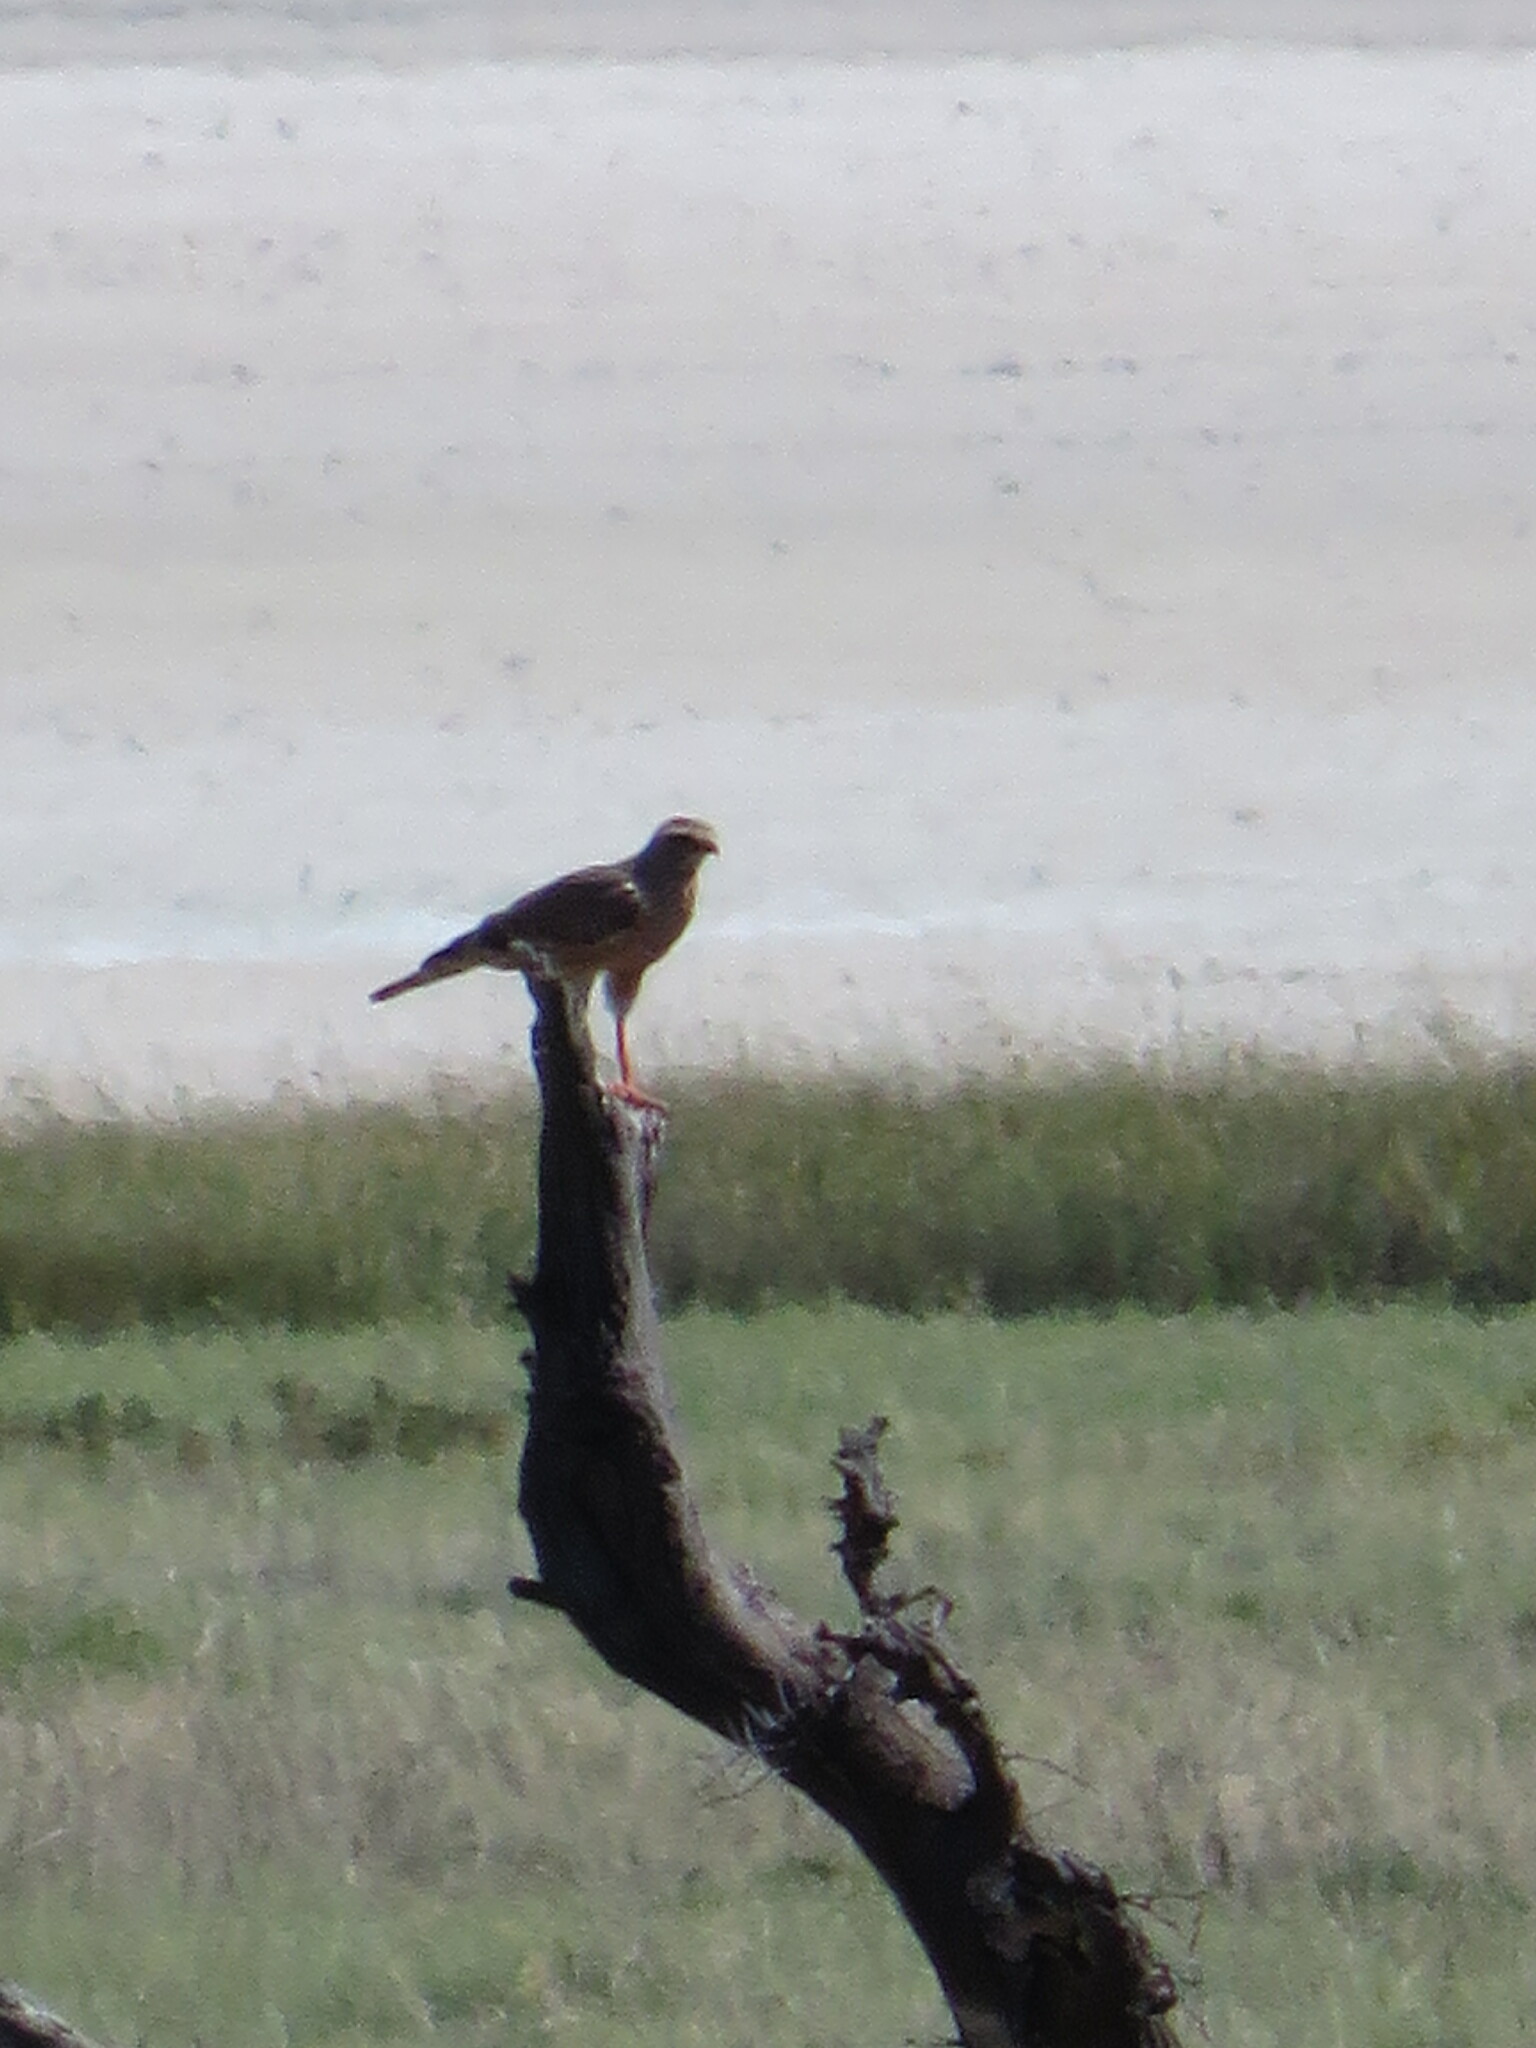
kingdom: Animalia
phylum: Chordata
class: Aves
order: Accipitriformes
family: Accipitridae
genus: Melierax
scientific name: Melierax canorus
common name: Pale chanting-goshawk
